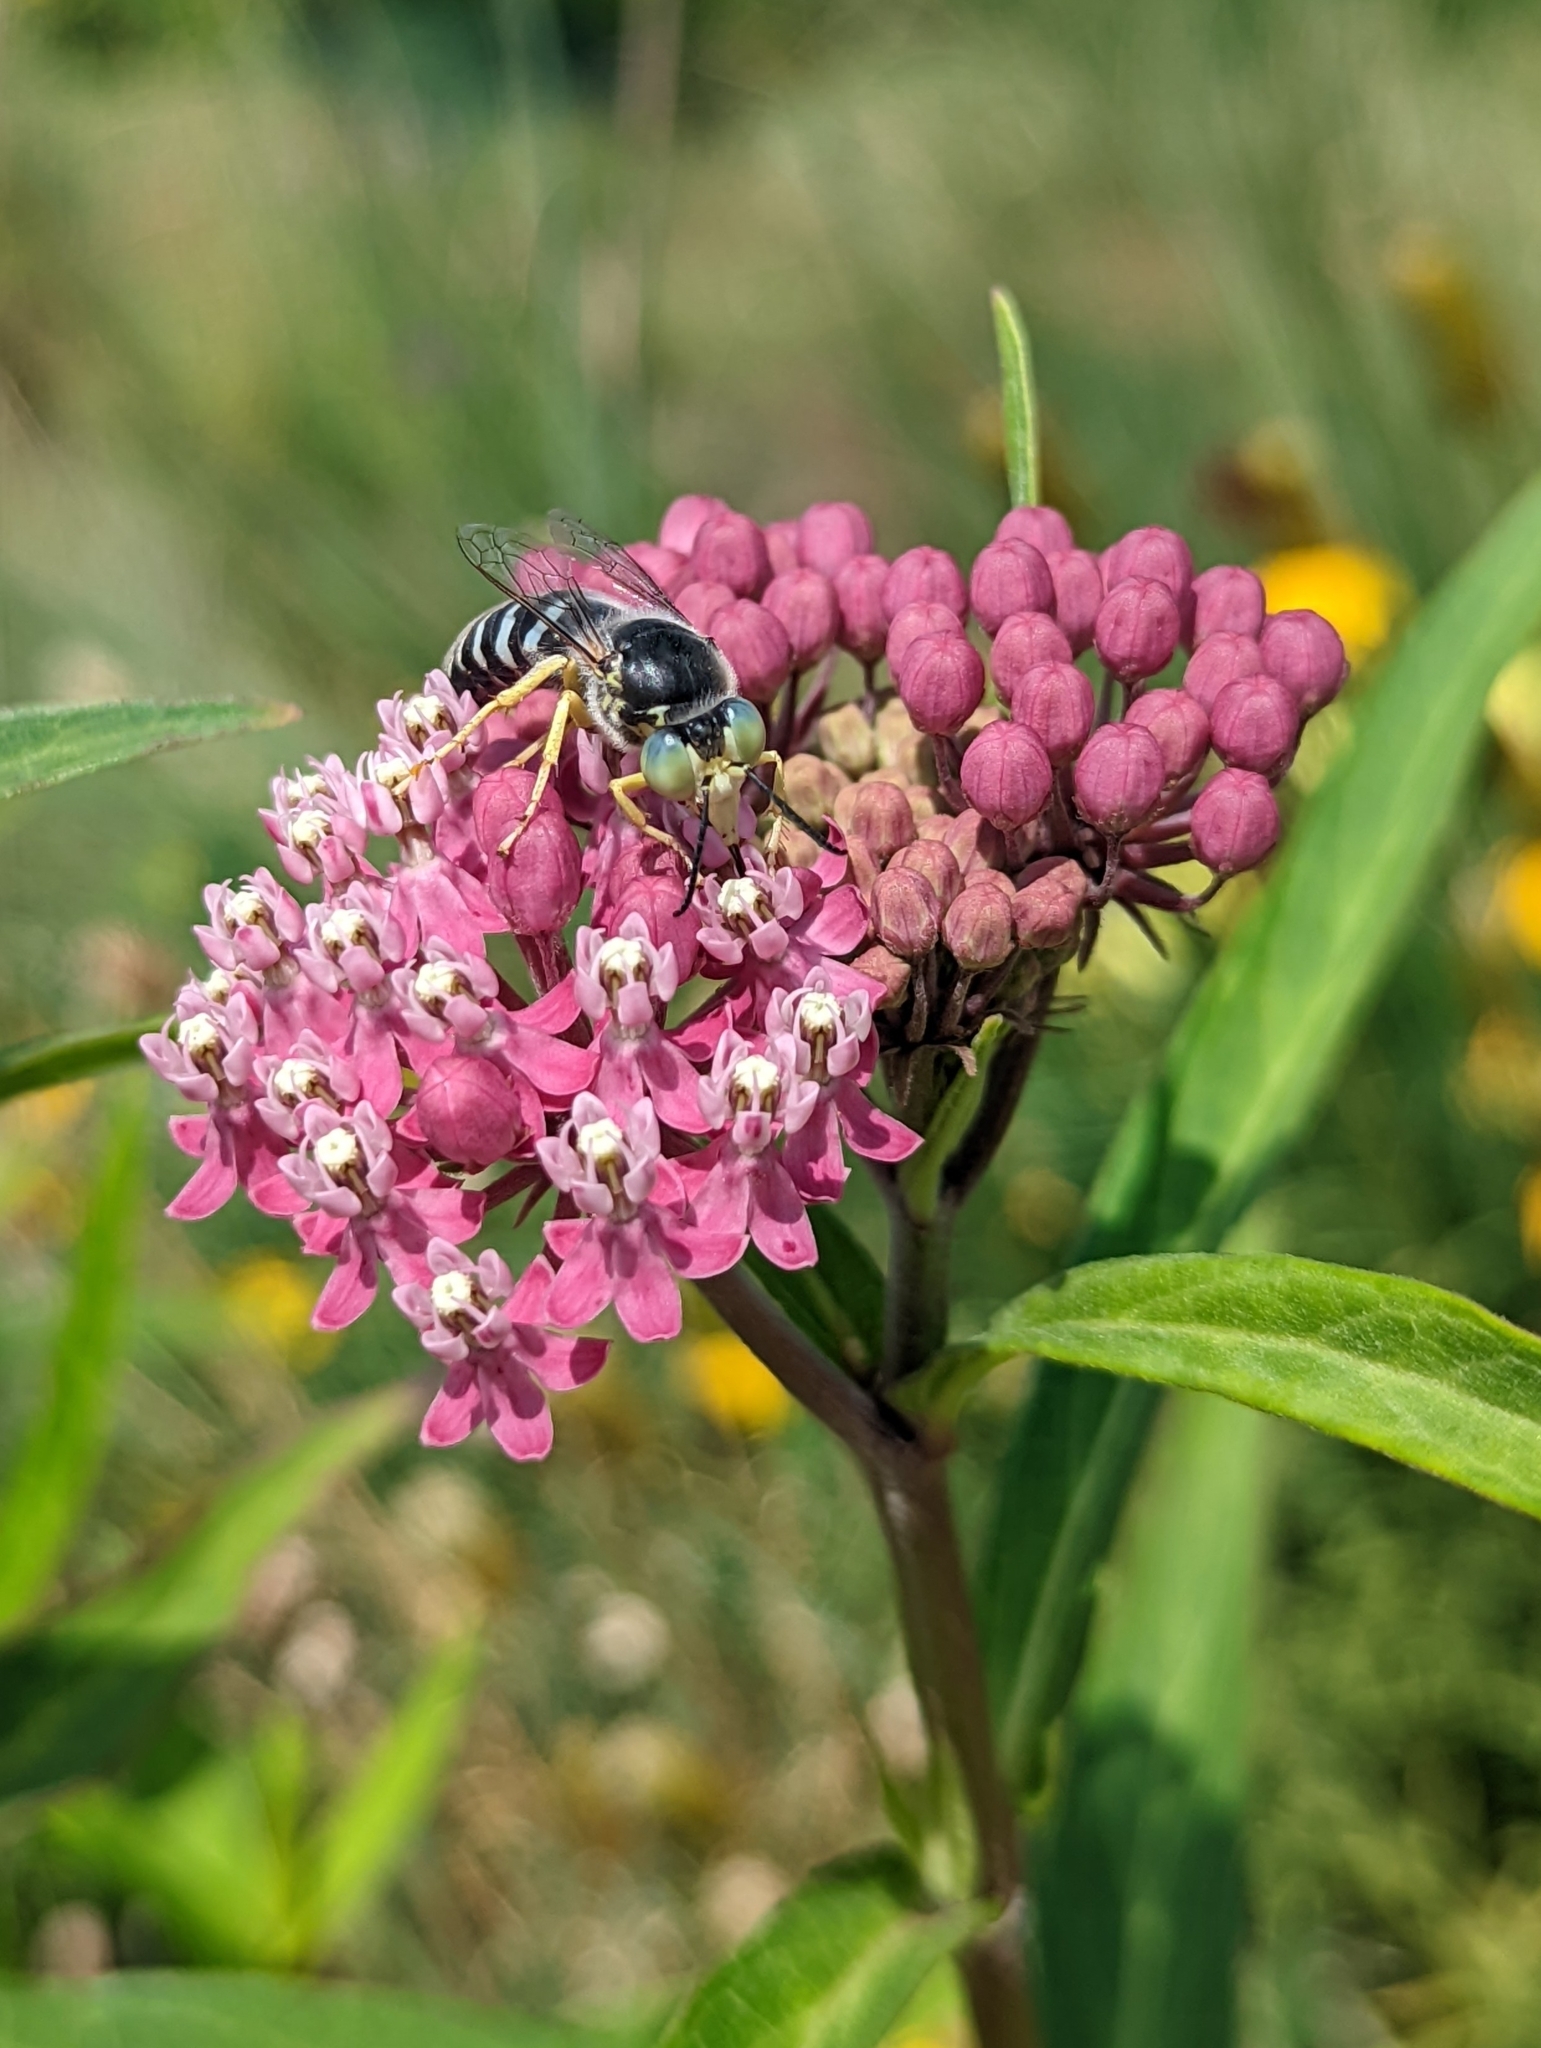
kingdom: Animalia
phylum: Arthropoda
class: Insecta
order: Hymenoptera
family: Crabronidae
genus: Bembix
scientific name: Bembix americana
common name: American sand wasp
